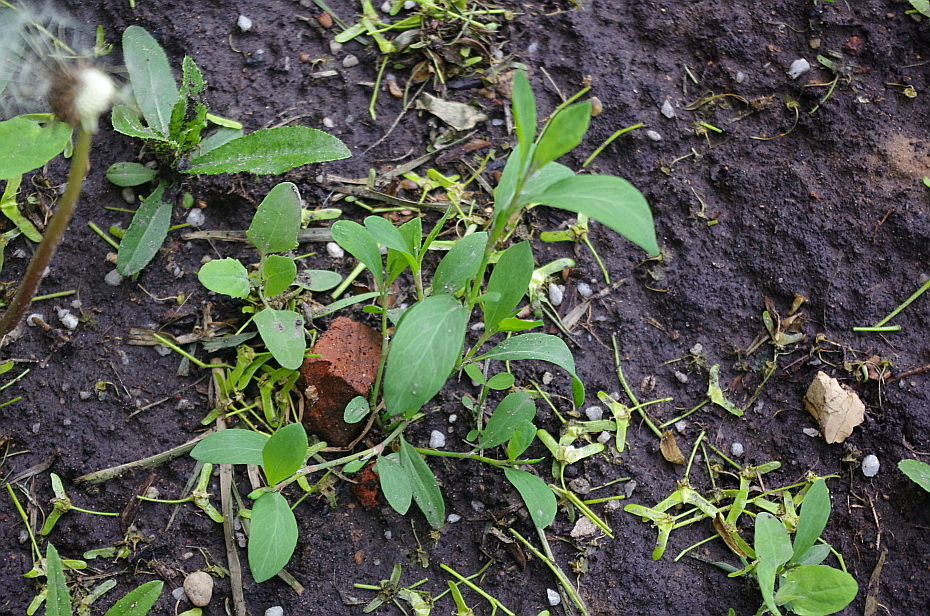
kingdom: Plantae
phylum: Tracheophyta
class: Magnoliopsida
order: Caryophyllales
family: Polygonaceae
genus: Polygonum
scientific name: Polygonum
